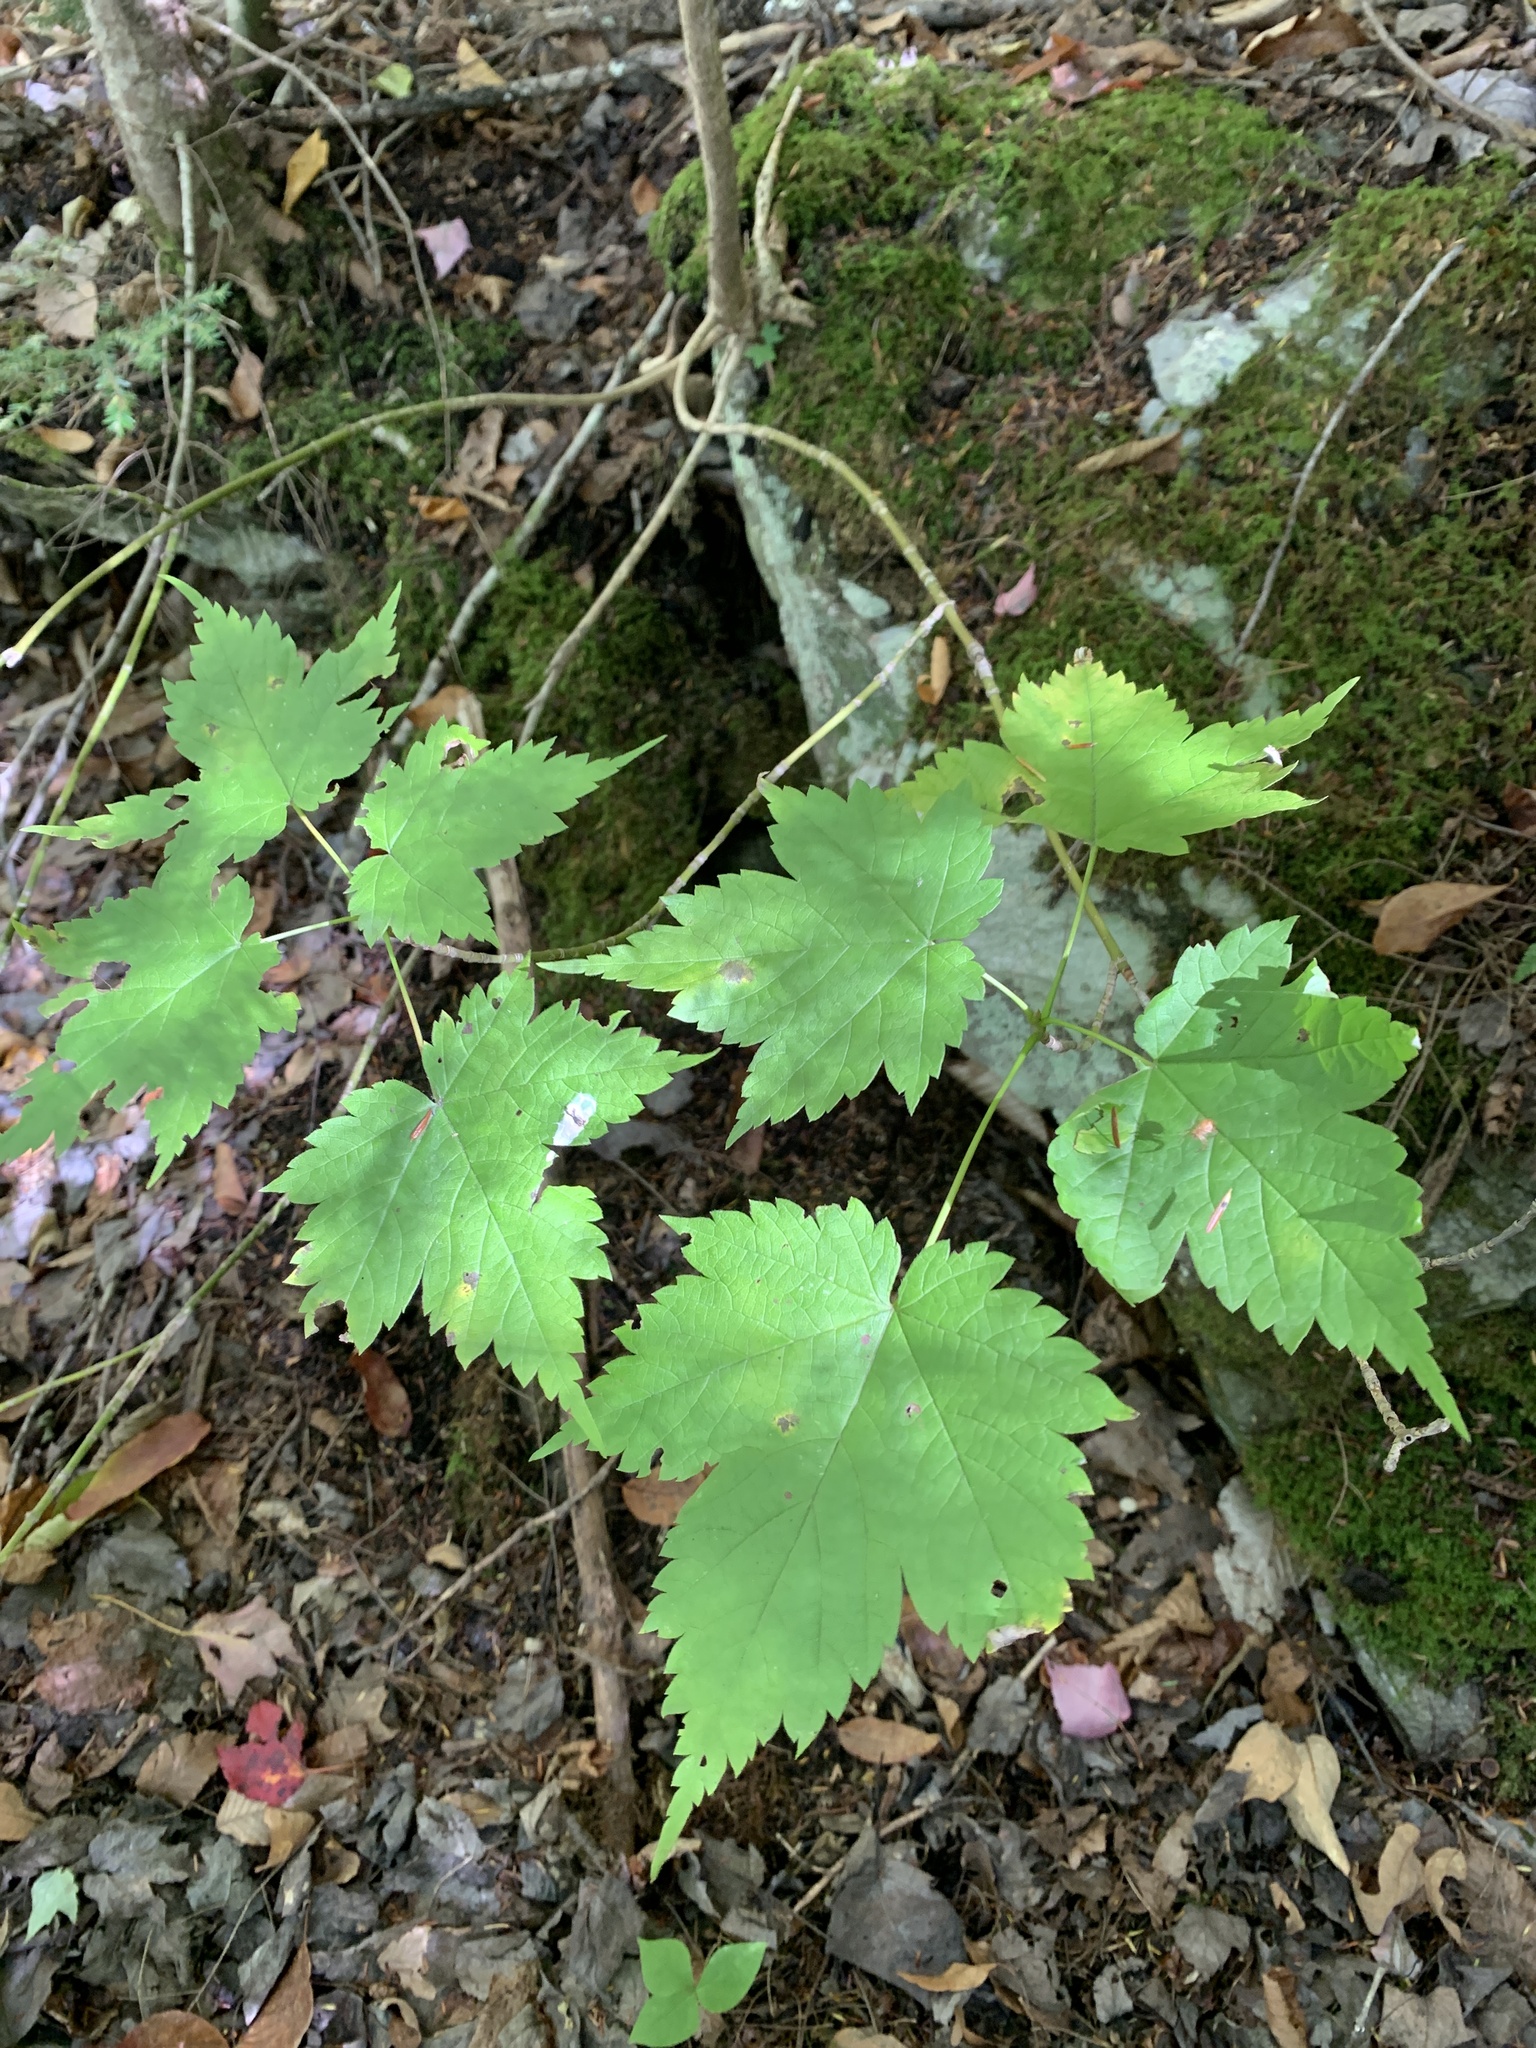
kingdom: Plantae
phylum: Tracheophyta
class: Magnoliopsida
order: Sapindales
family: Sapindaceae
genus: Acer
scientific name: Acer spicatum
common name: Mountain maple
